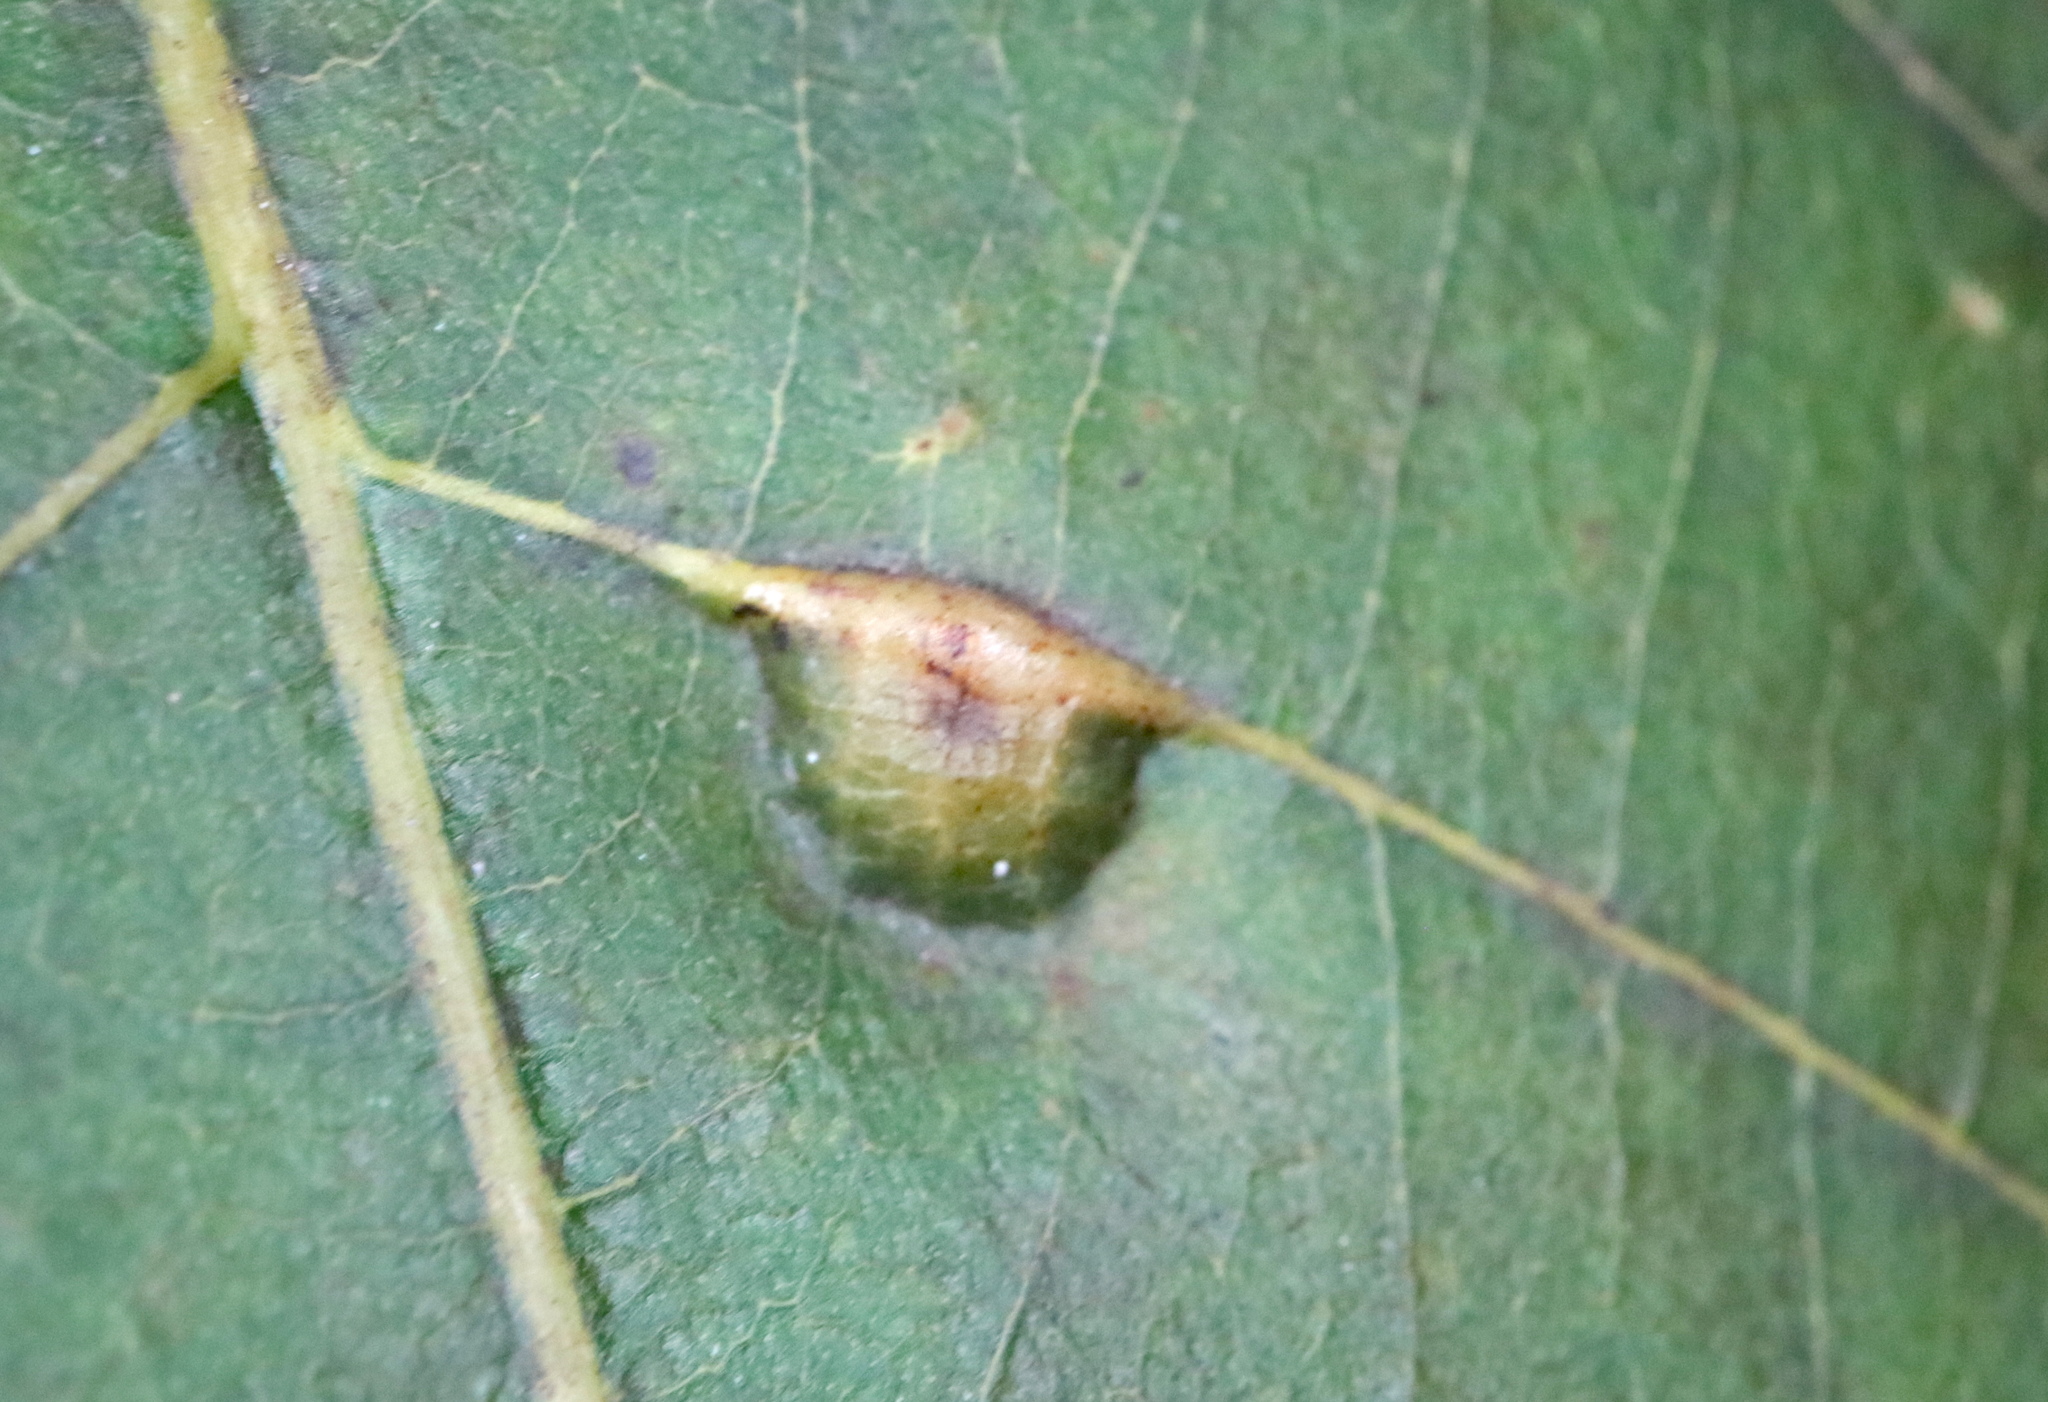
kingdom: Animalia
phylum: Arthropoda
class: Insecta
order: Diptera
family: Cecidomyiidae
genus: Caryomyia
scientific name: Caryomyia tubicola
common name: Hickory bullet gall midge
